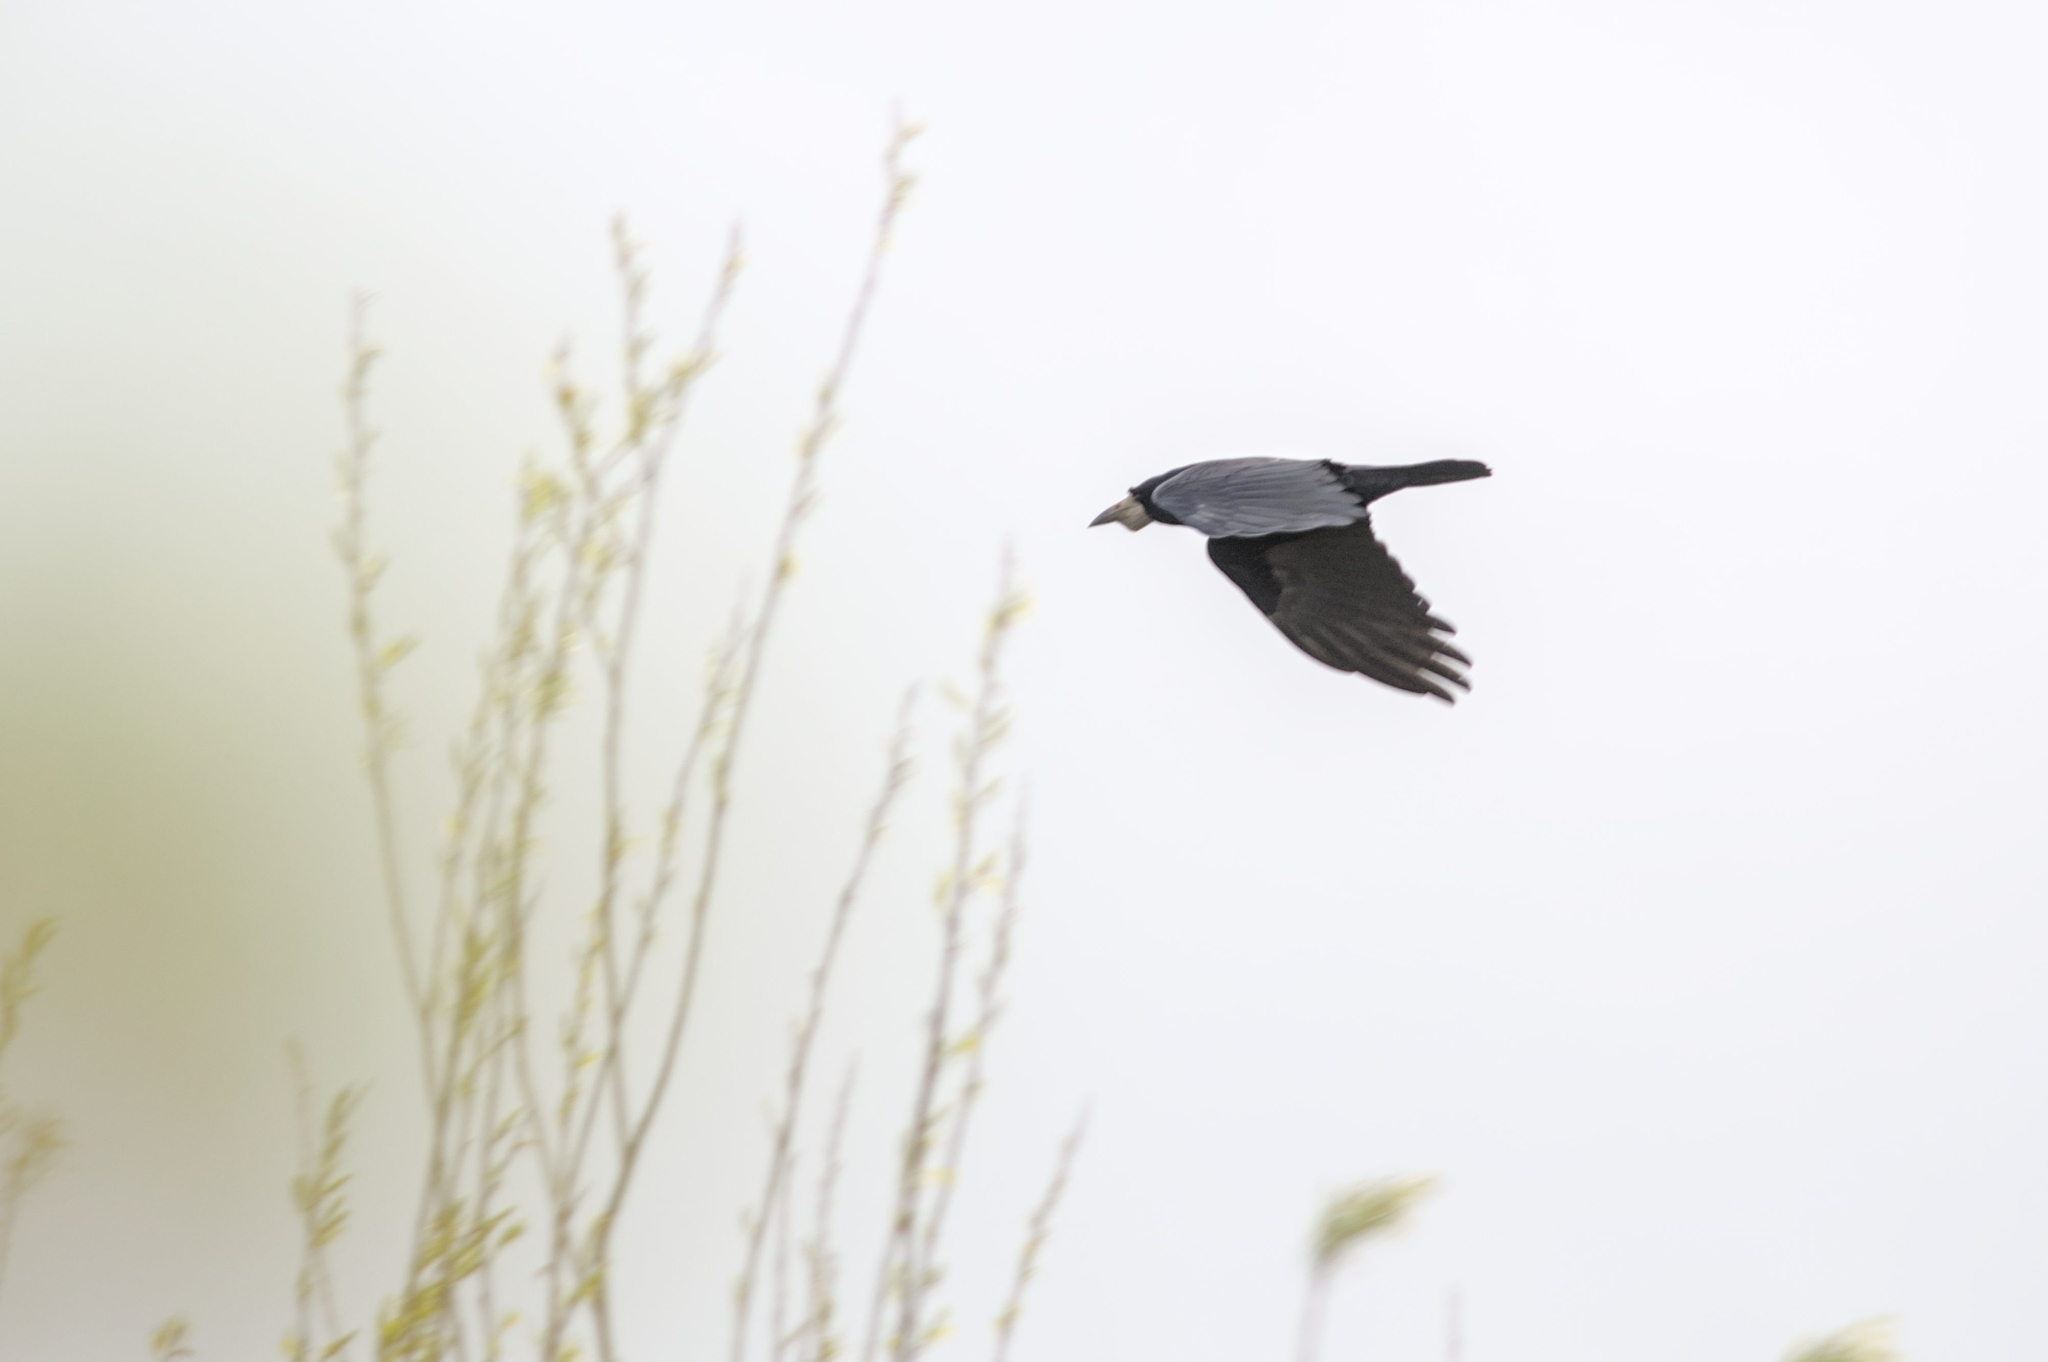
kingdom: Animalia
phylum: Chordata
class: Aves
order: Passeriformes
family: Corvidae
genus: Corvus
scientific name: Corvus frugilegus
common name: Rook
